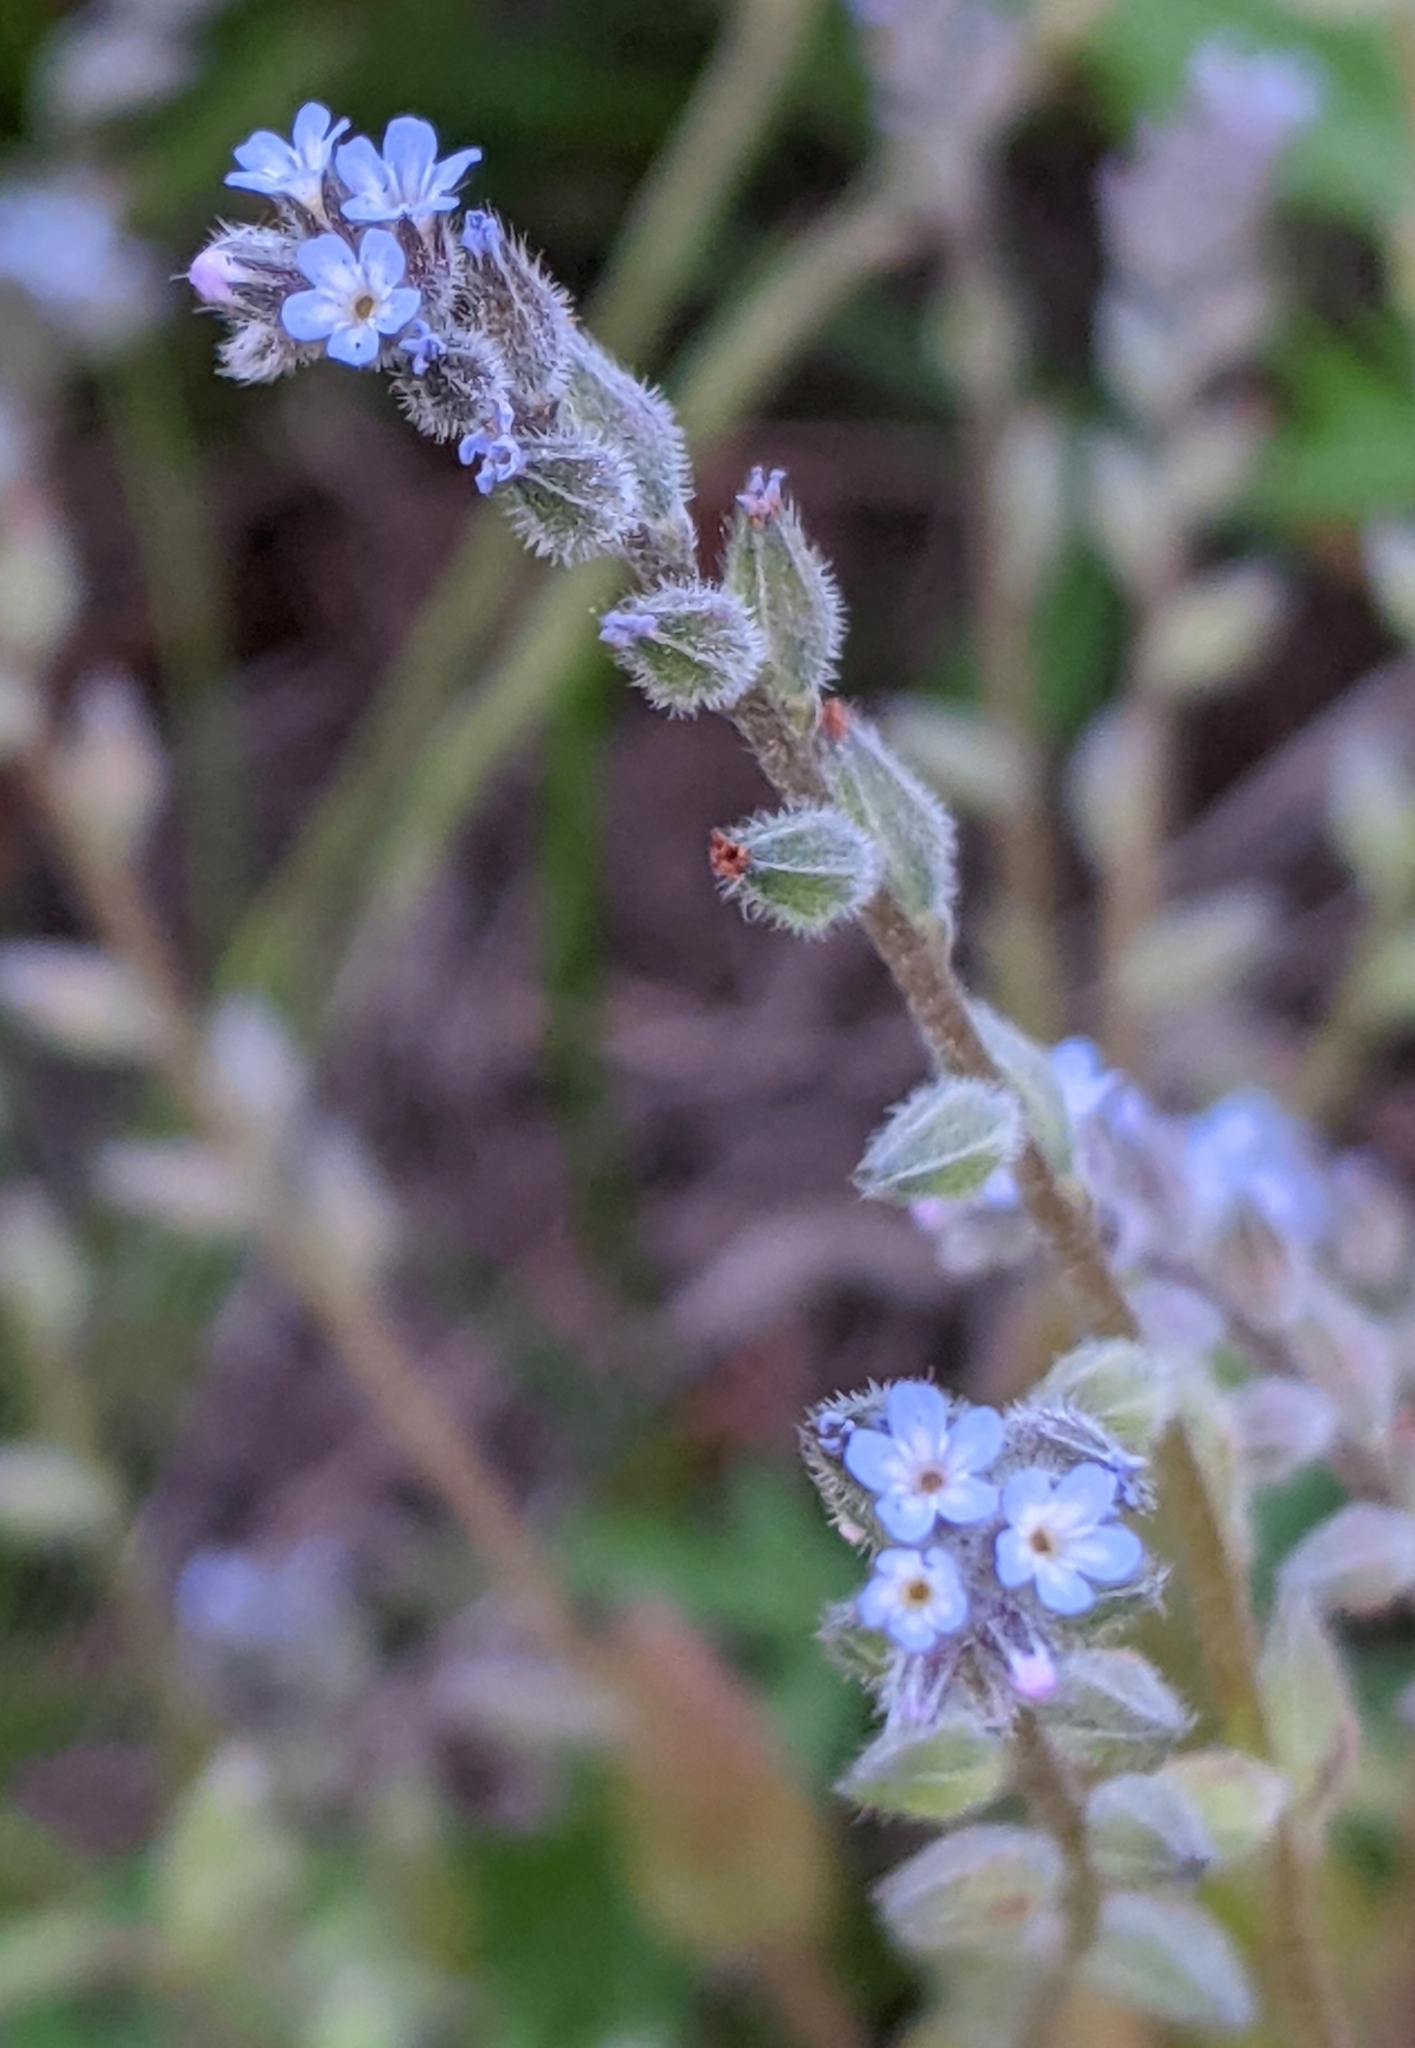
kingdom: Plantae
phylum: Tracheophyta
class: Magnoliopsida
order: Boraginales
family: Boraginaceae
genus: Myosotis
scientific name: Myosotis stricta
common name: Strict forget-me-not
